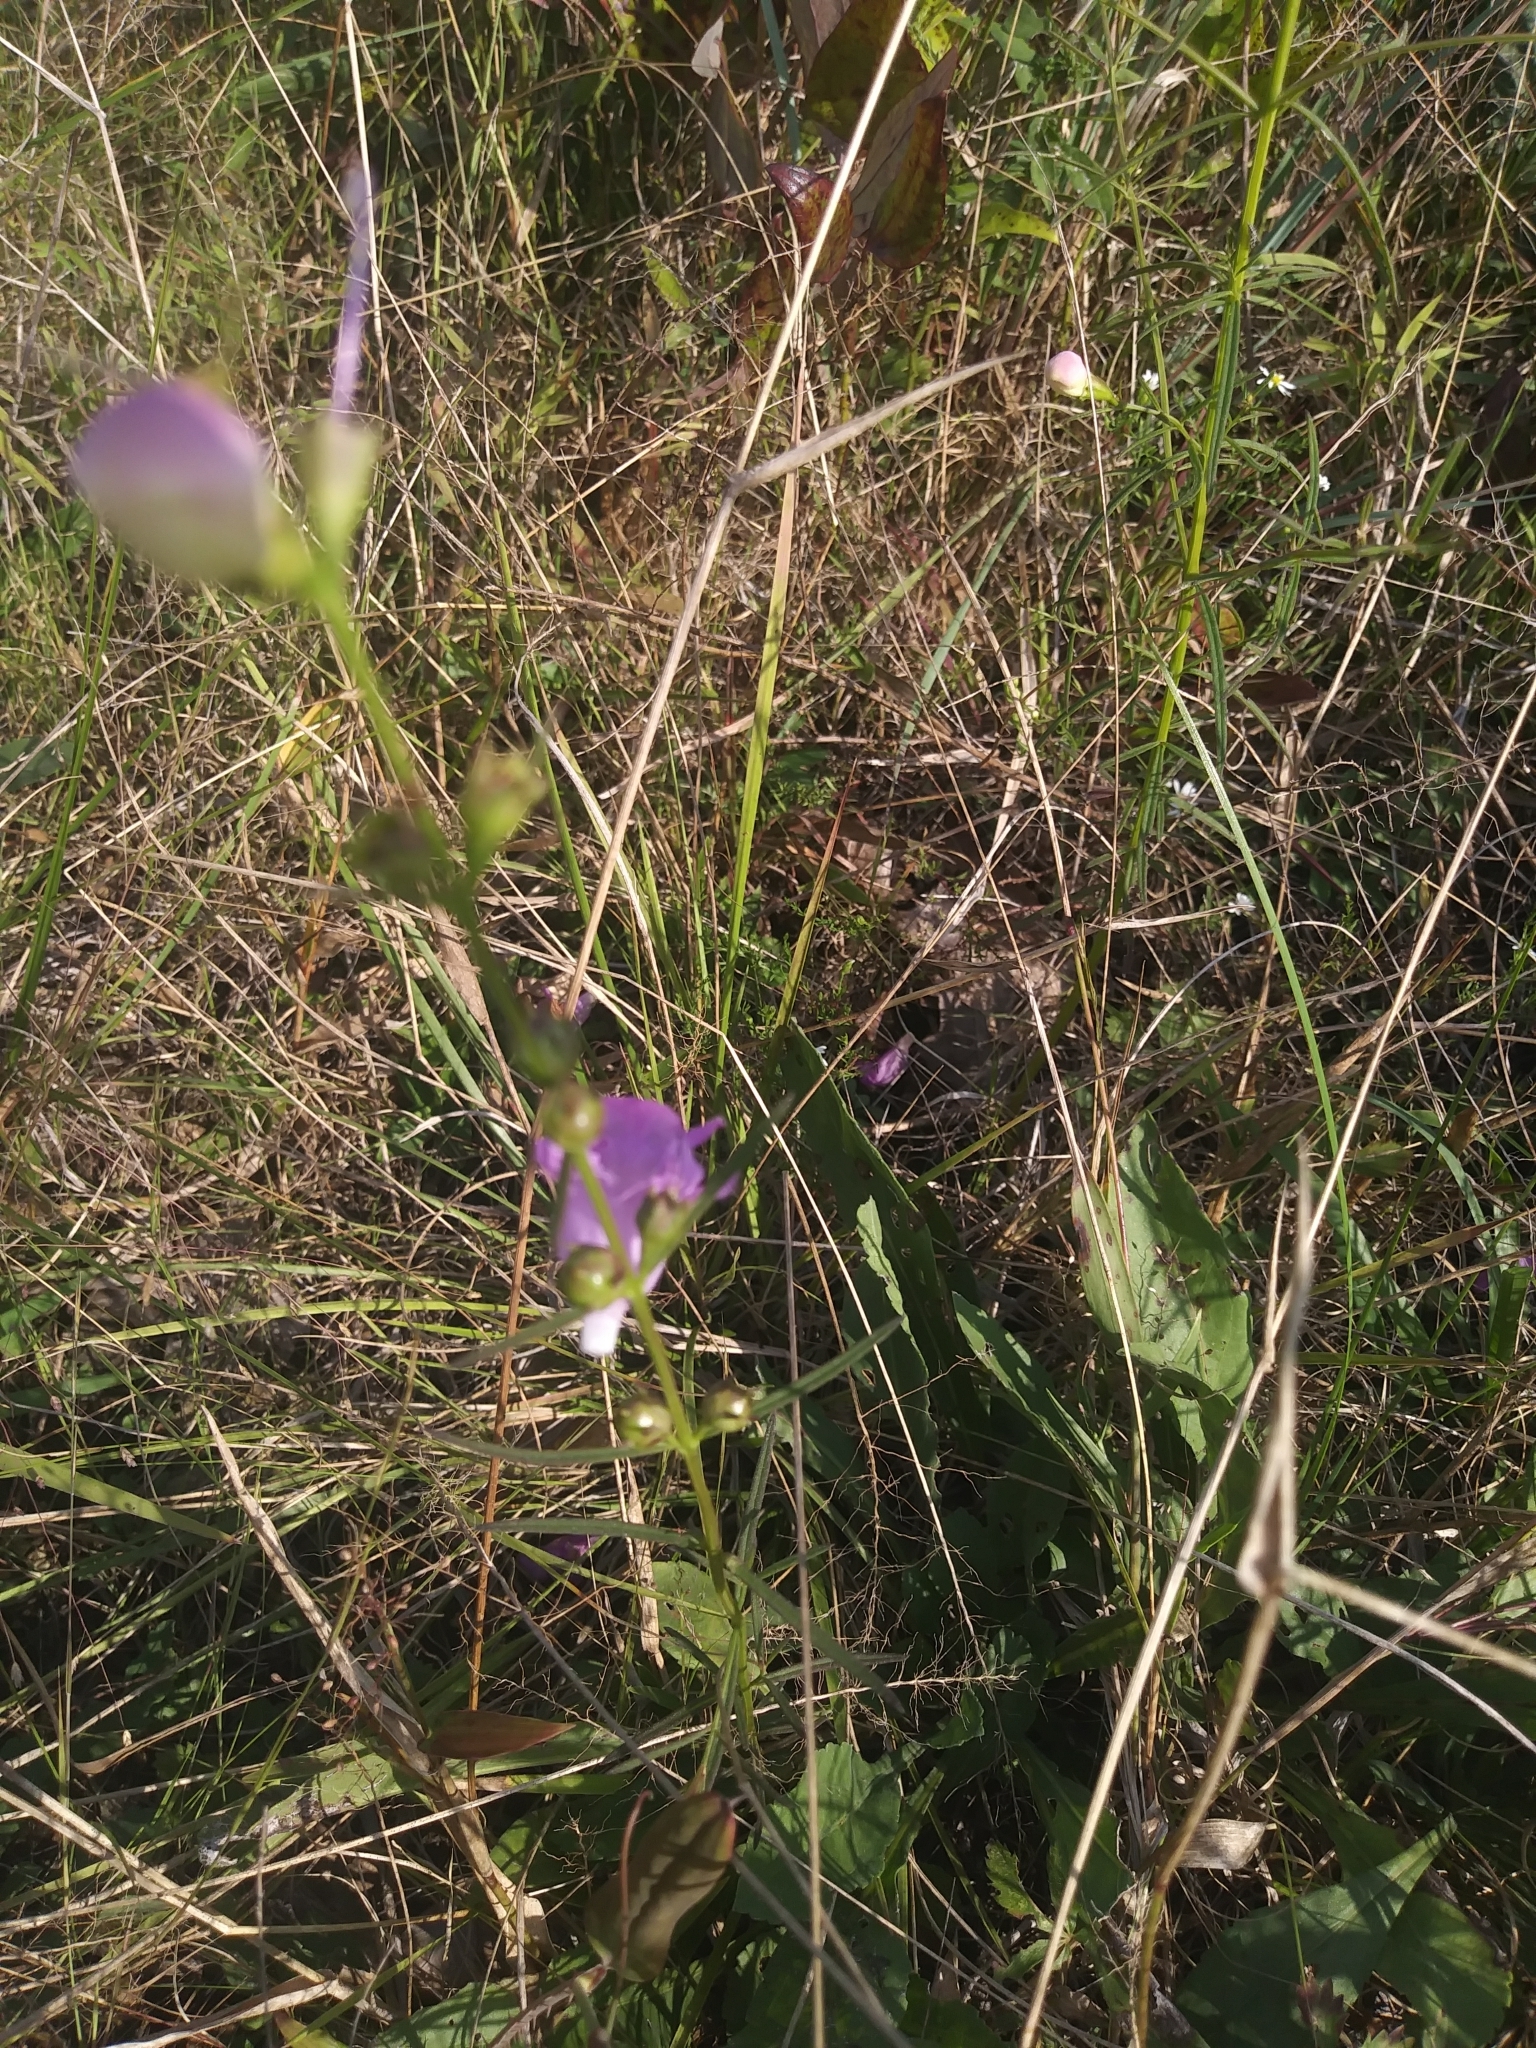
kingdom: Plantae
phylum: Tracheophyta
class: Magnoliopsida
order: Lamiales
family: Orobanchaceae
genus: Agalinis
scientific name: Agalinis purpurea
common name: Purple false foxglove
